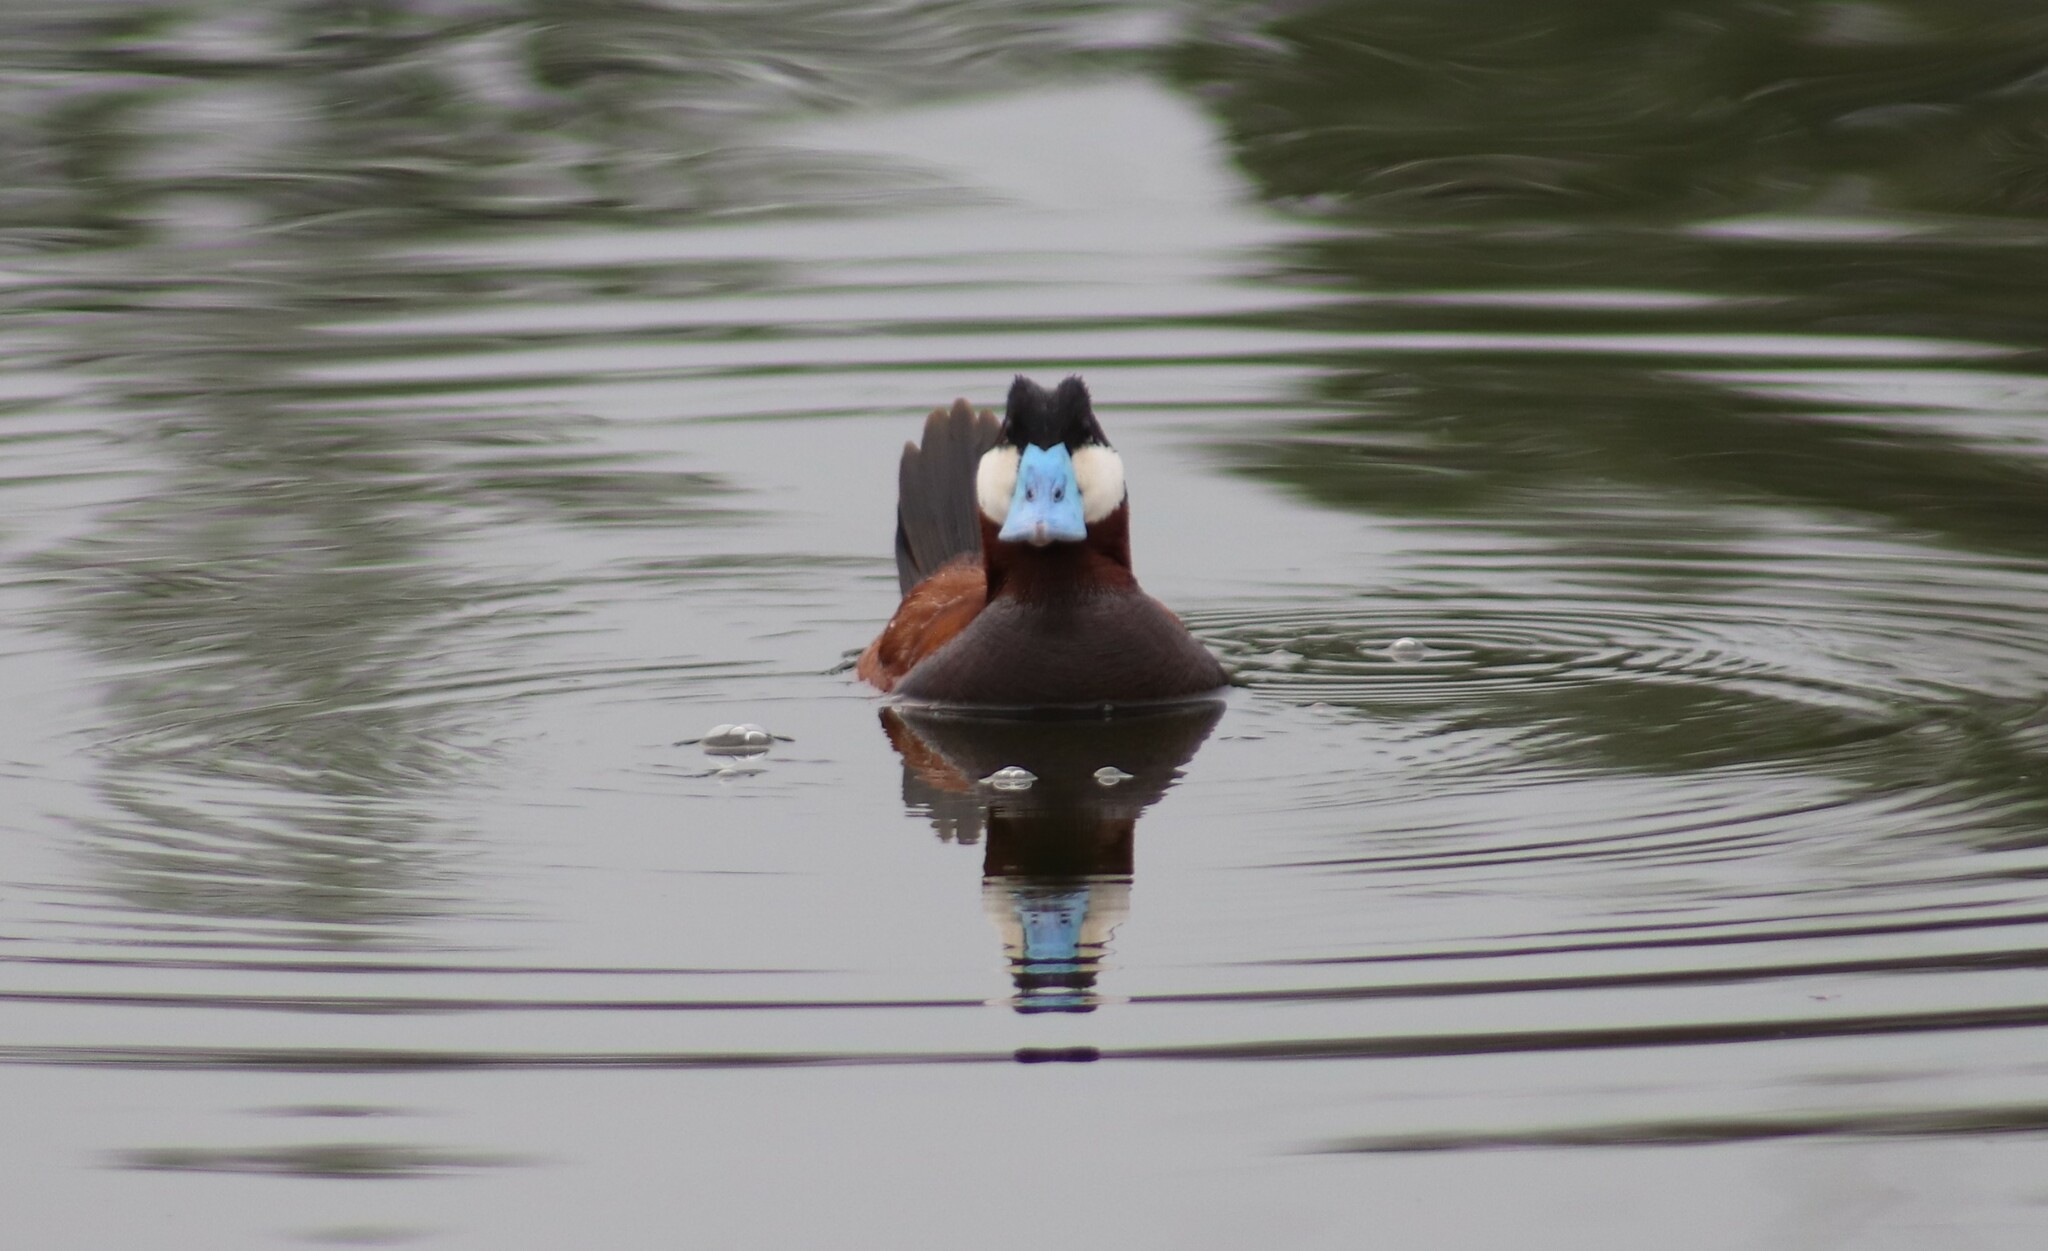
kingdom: Animalia
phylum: Chordata
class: Aves
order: Anseriformes
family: Anatidae
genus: Oxyura
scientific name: Oxyura jamaicensis
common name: Ruddy duck
